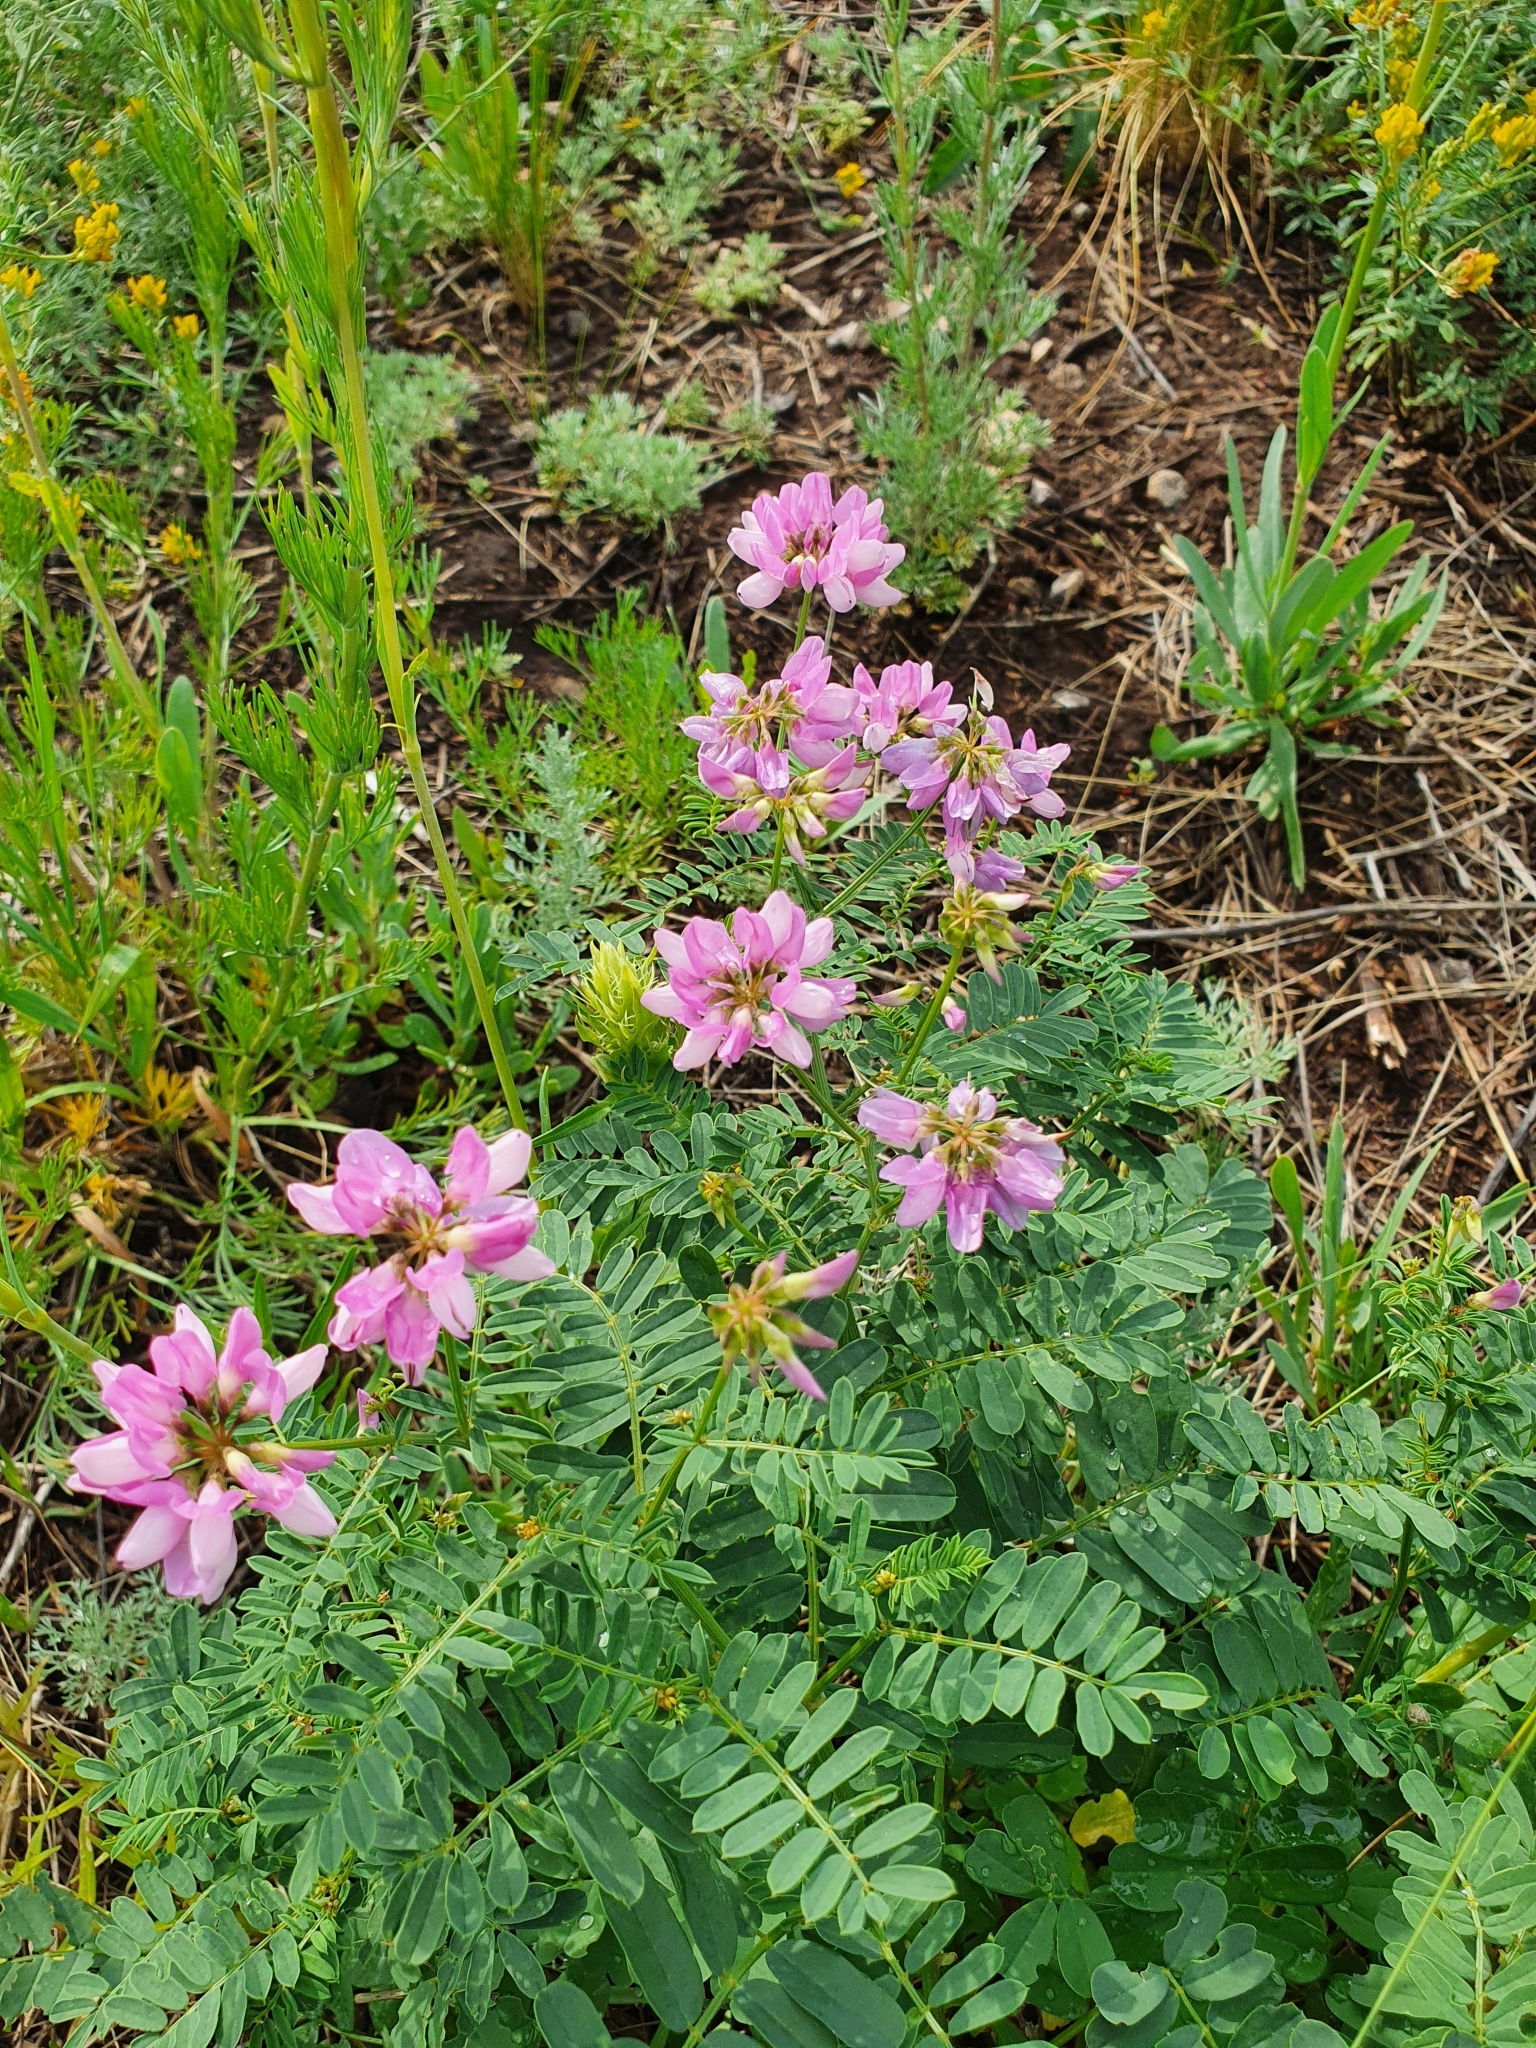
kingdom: Plantae
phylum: Tracheophyta
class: Magnoliopsida
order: Fabales
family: Fabaceae
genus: Coronilla
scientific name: Coronilla varia
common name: Crownvetch
